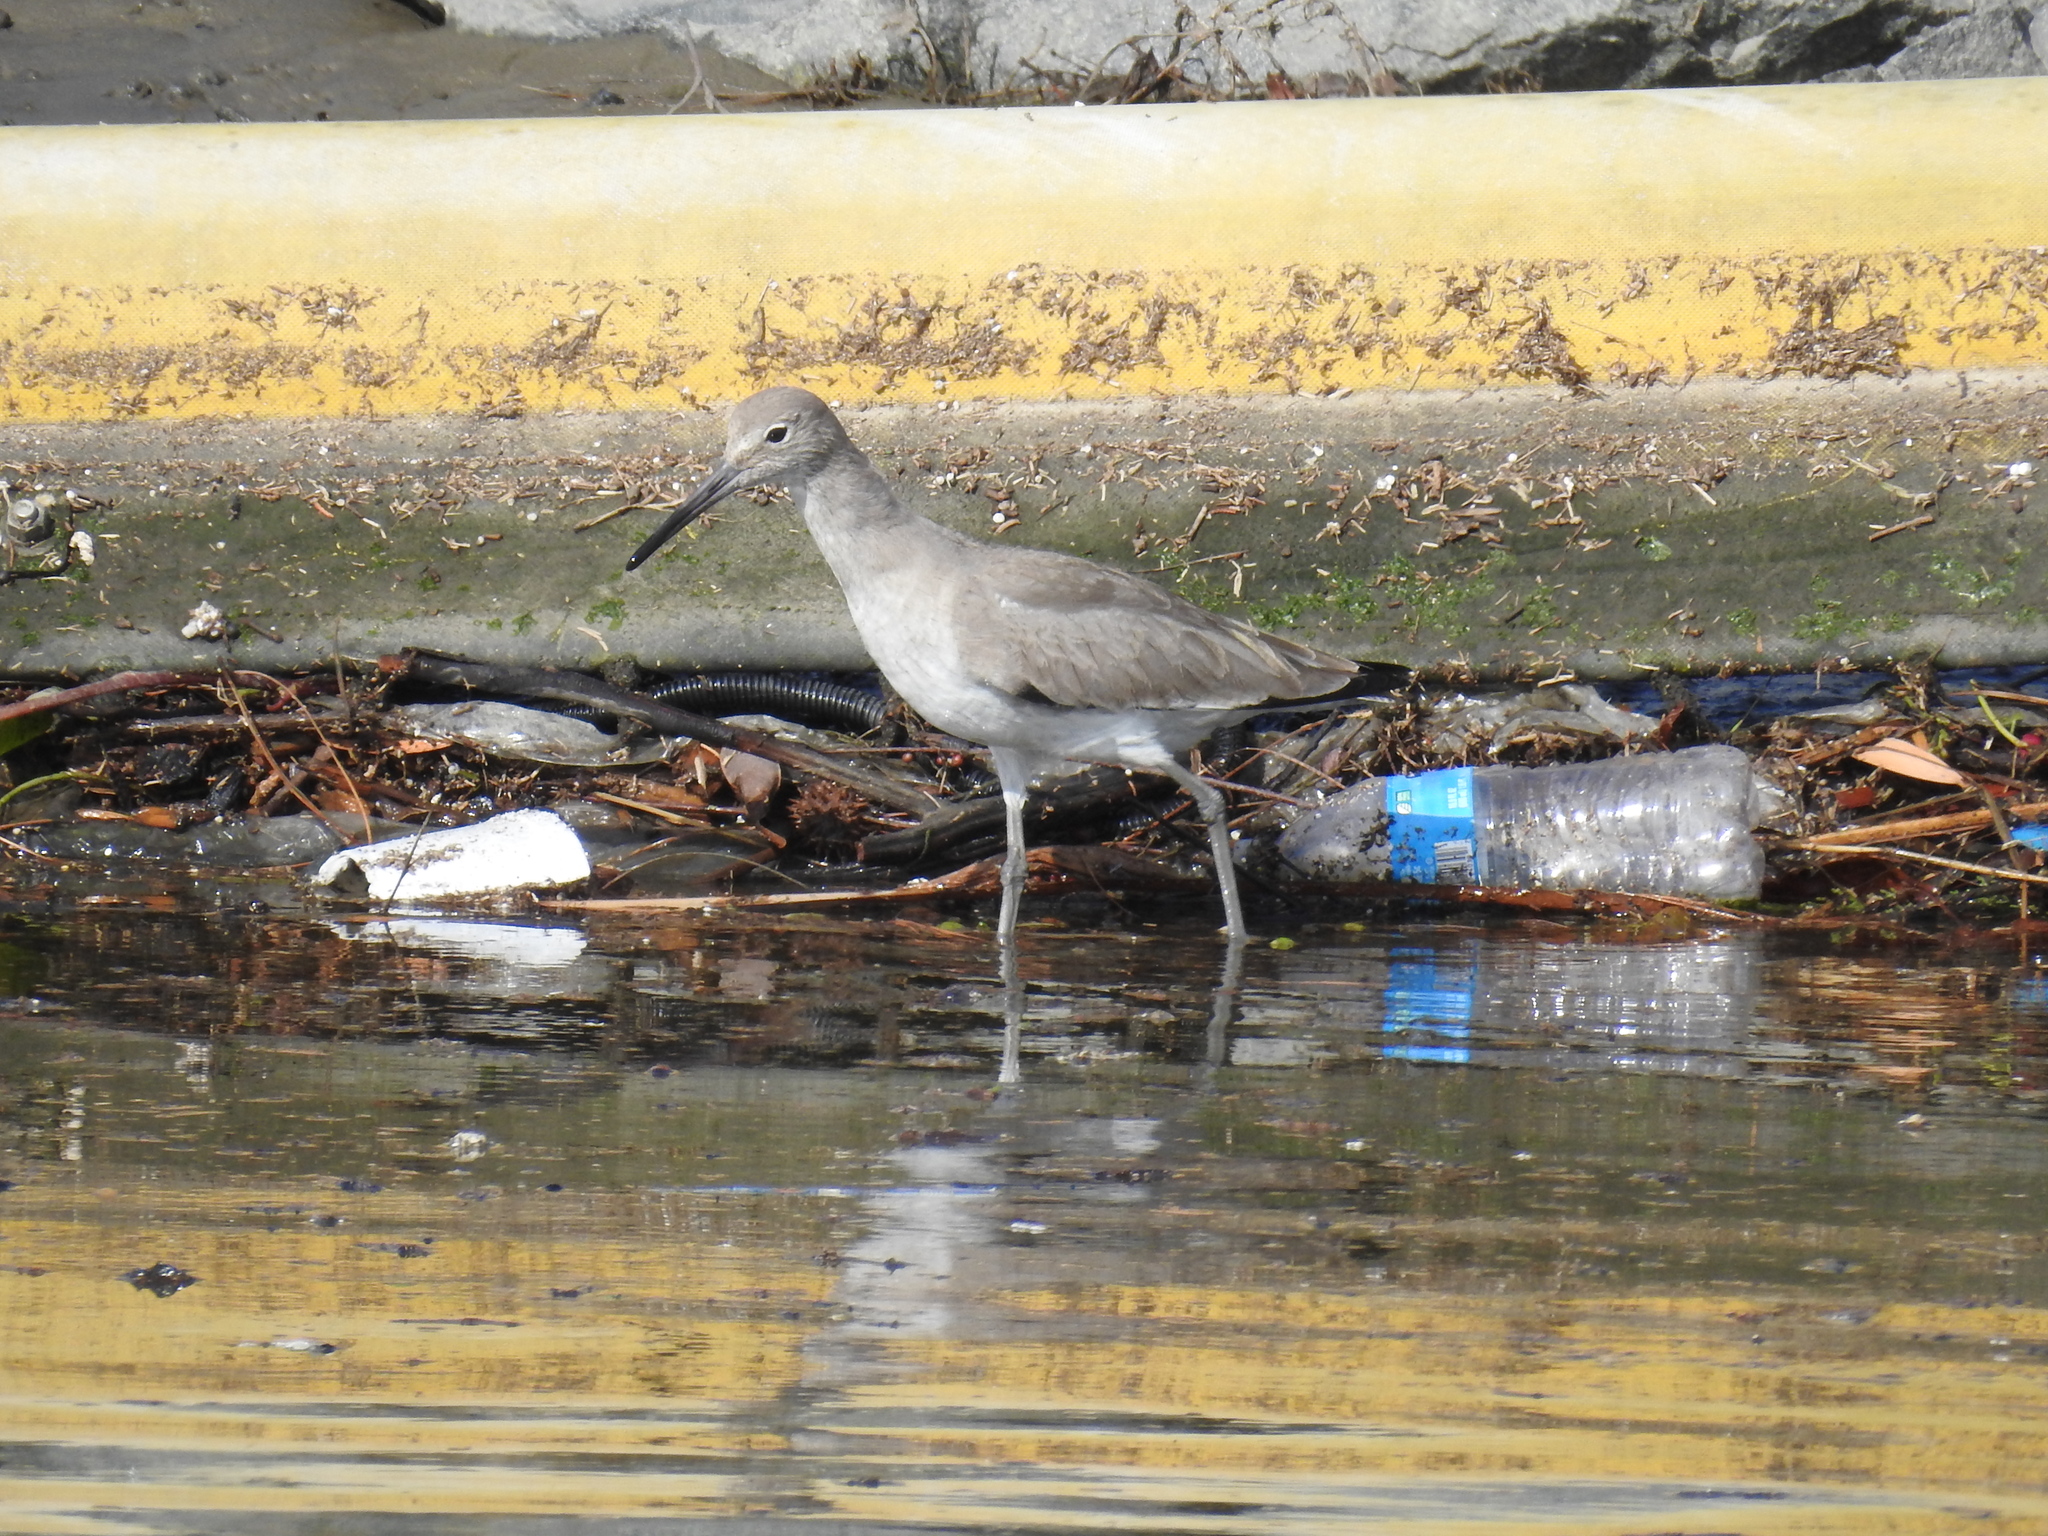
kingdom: Animalia
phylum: Chordata
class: Aves
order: Charadriiformes
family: Scolopacidae
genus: Tringa
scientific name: Tringa semipalmata
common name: Willet
